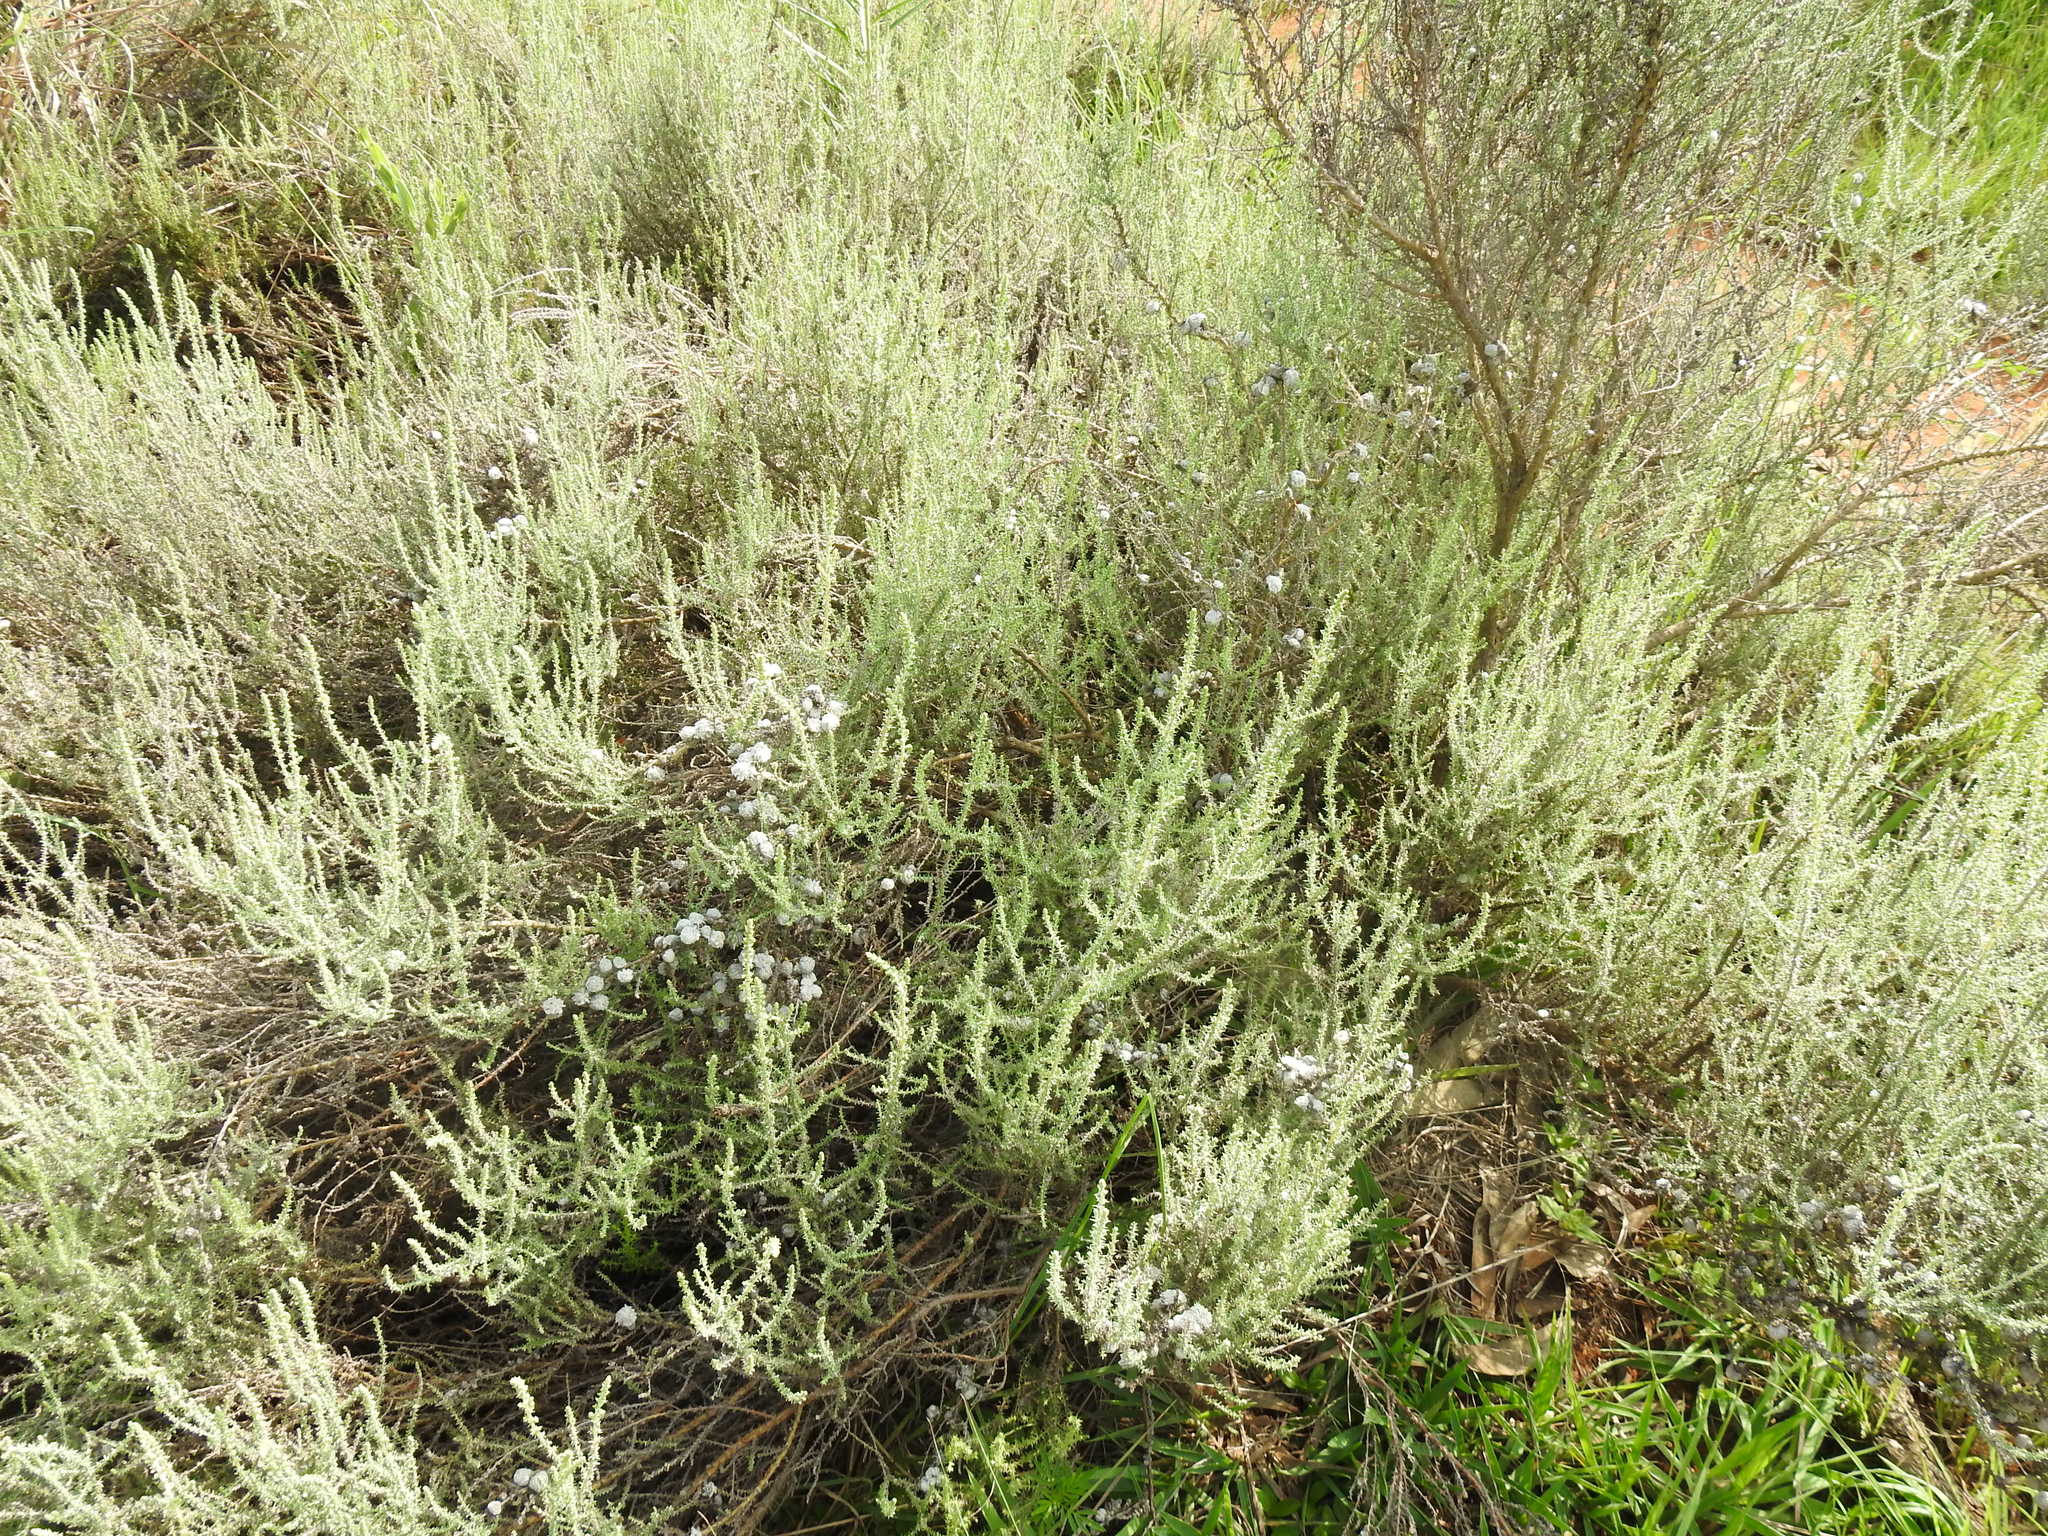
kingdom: Plantae
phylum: Tracheophyta
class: Magnoliopsida
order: Asterales
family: Asteraceae
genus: Seriphium
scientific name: Seriphium
